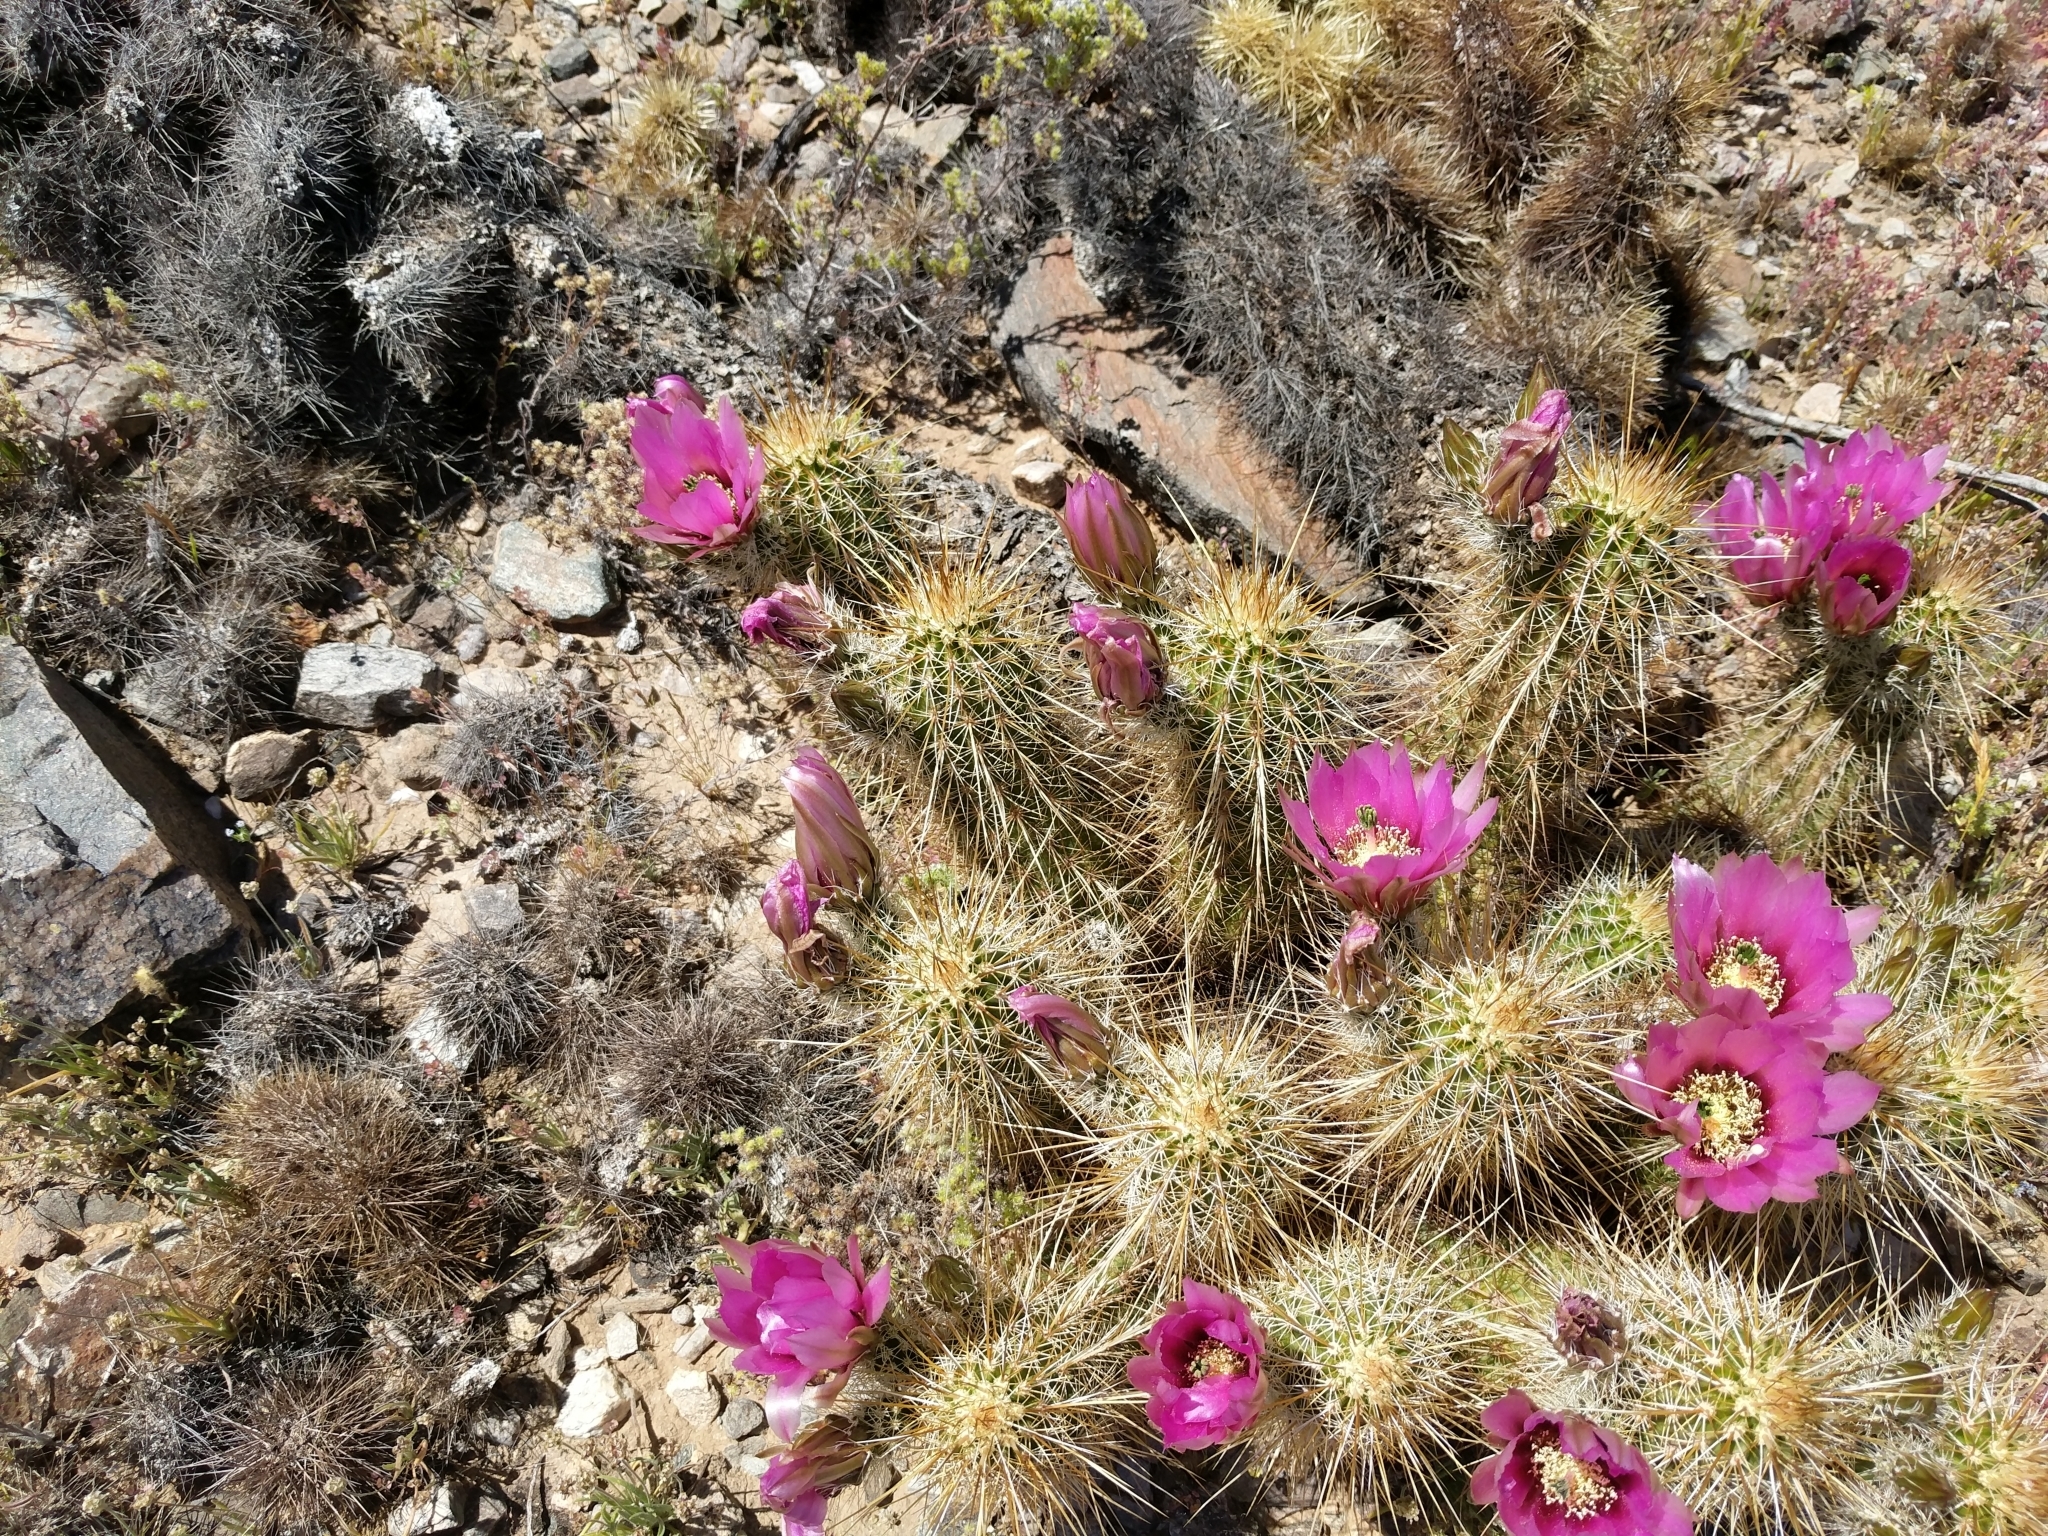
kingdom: Plantae
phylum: Tracheophyta
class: Magnoliopsida
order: Caryophyllales
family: Cactaceae
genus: Echinocereus
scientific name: Echinocereus engelmannii
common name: Engelmann's hedgehog cactus
